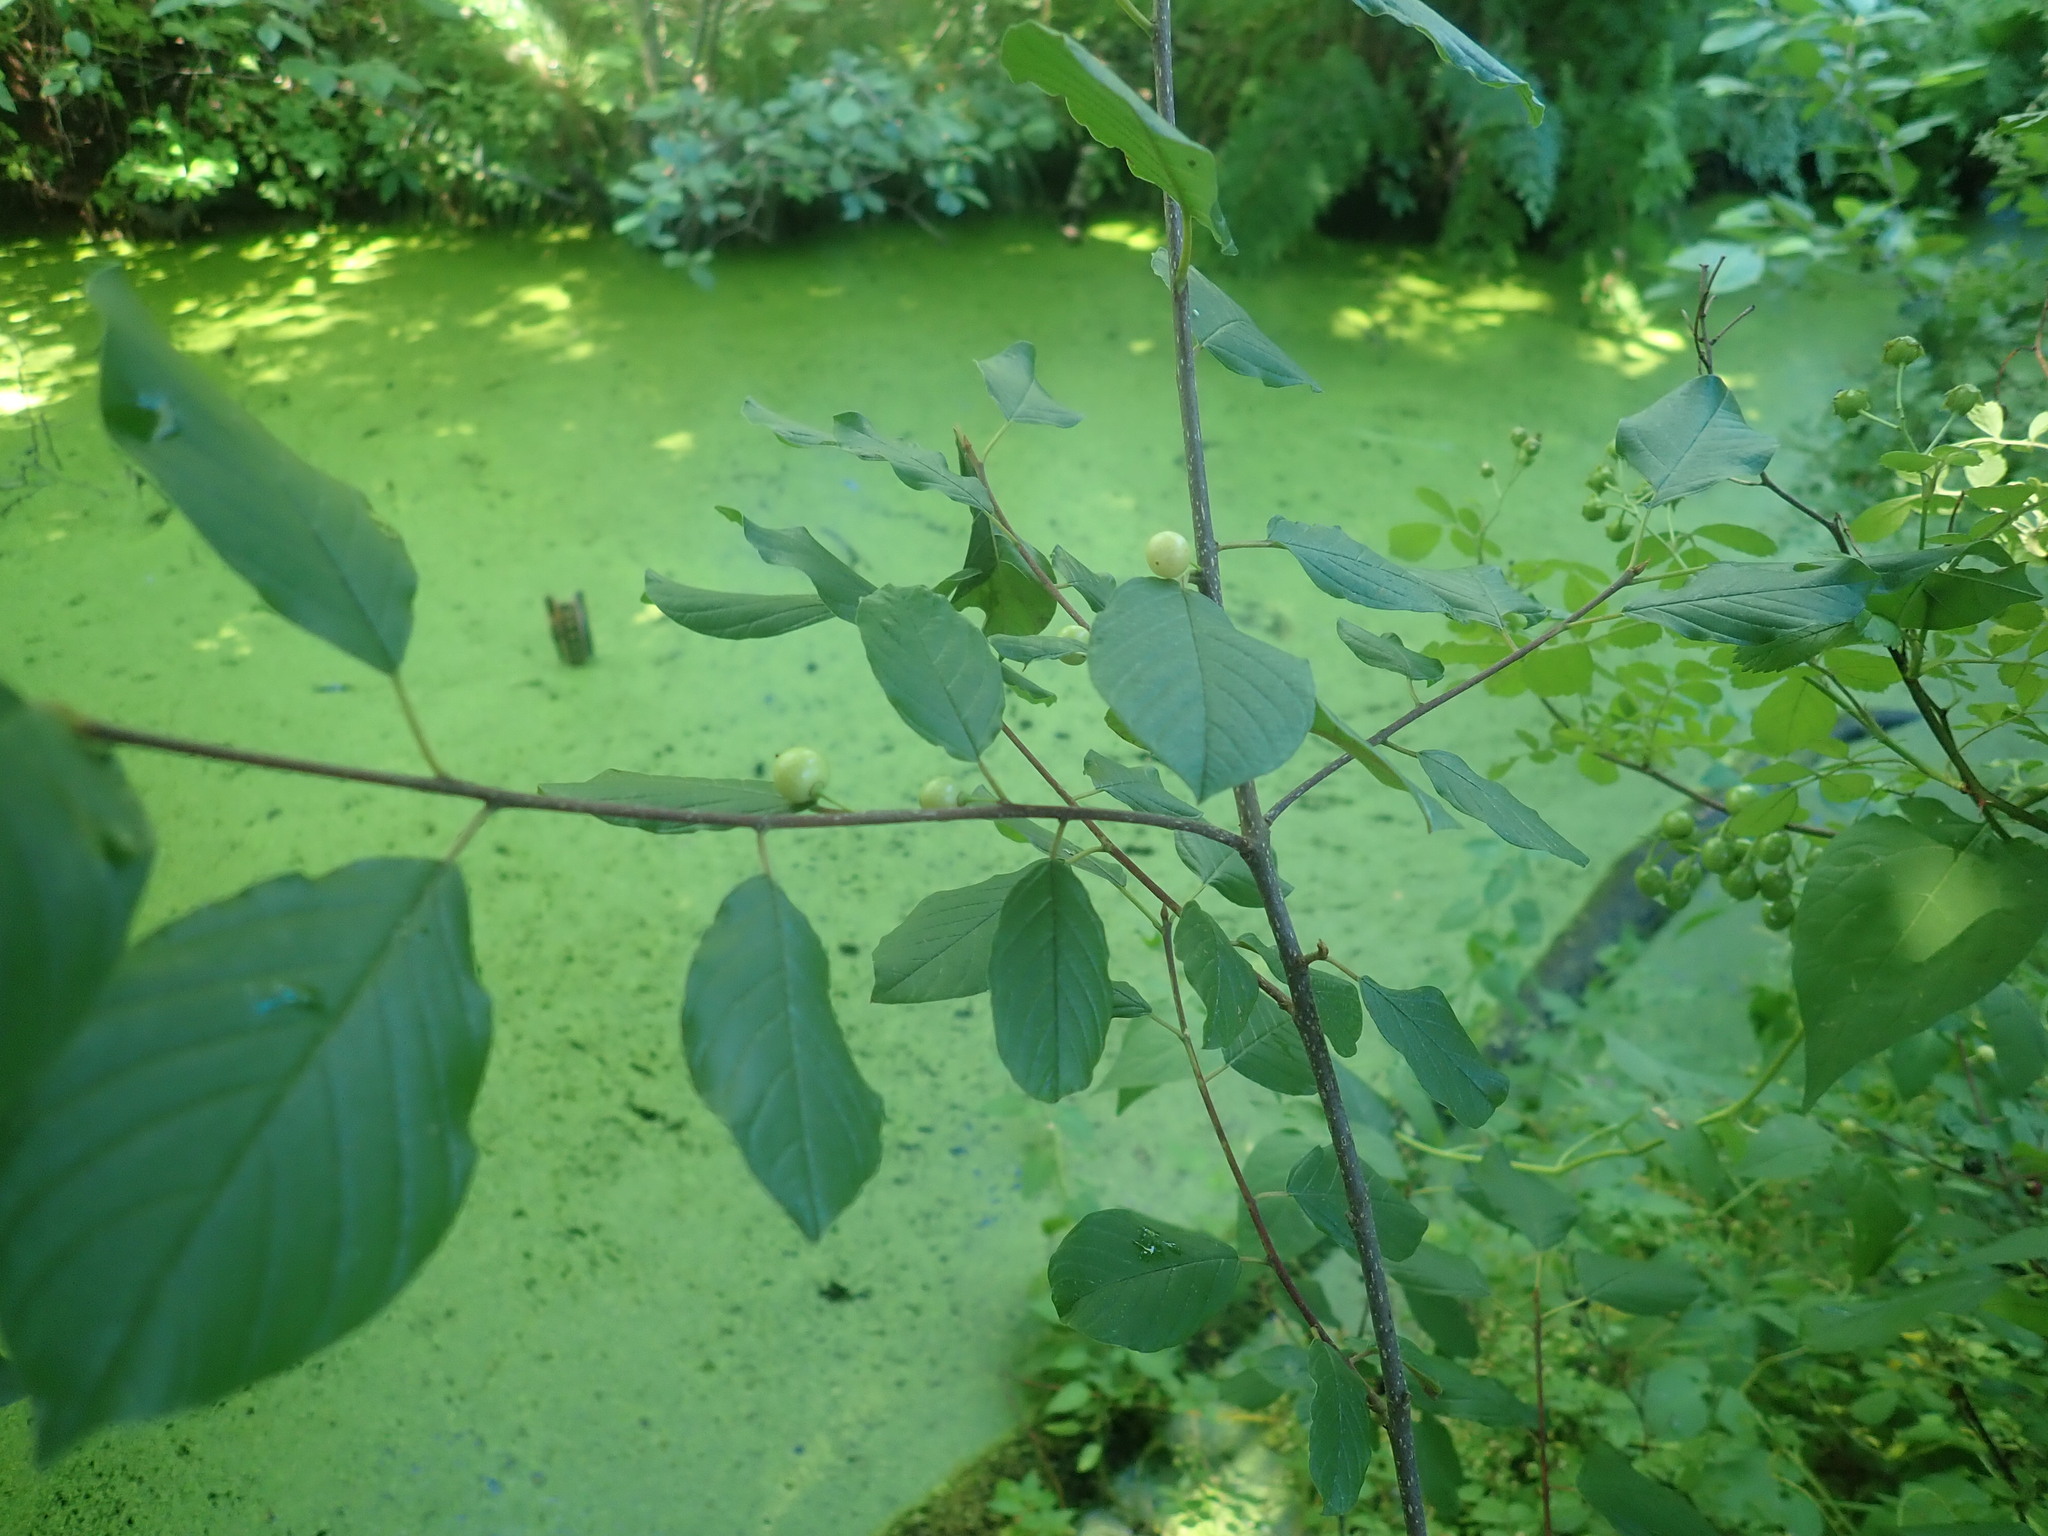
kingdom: Plantae
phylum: Tracheophyta
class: Magnoliopsida
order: Rosales
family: Rhamnaceae
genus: Frangula
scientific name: Frangula alnus
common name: Alder buckthorn
